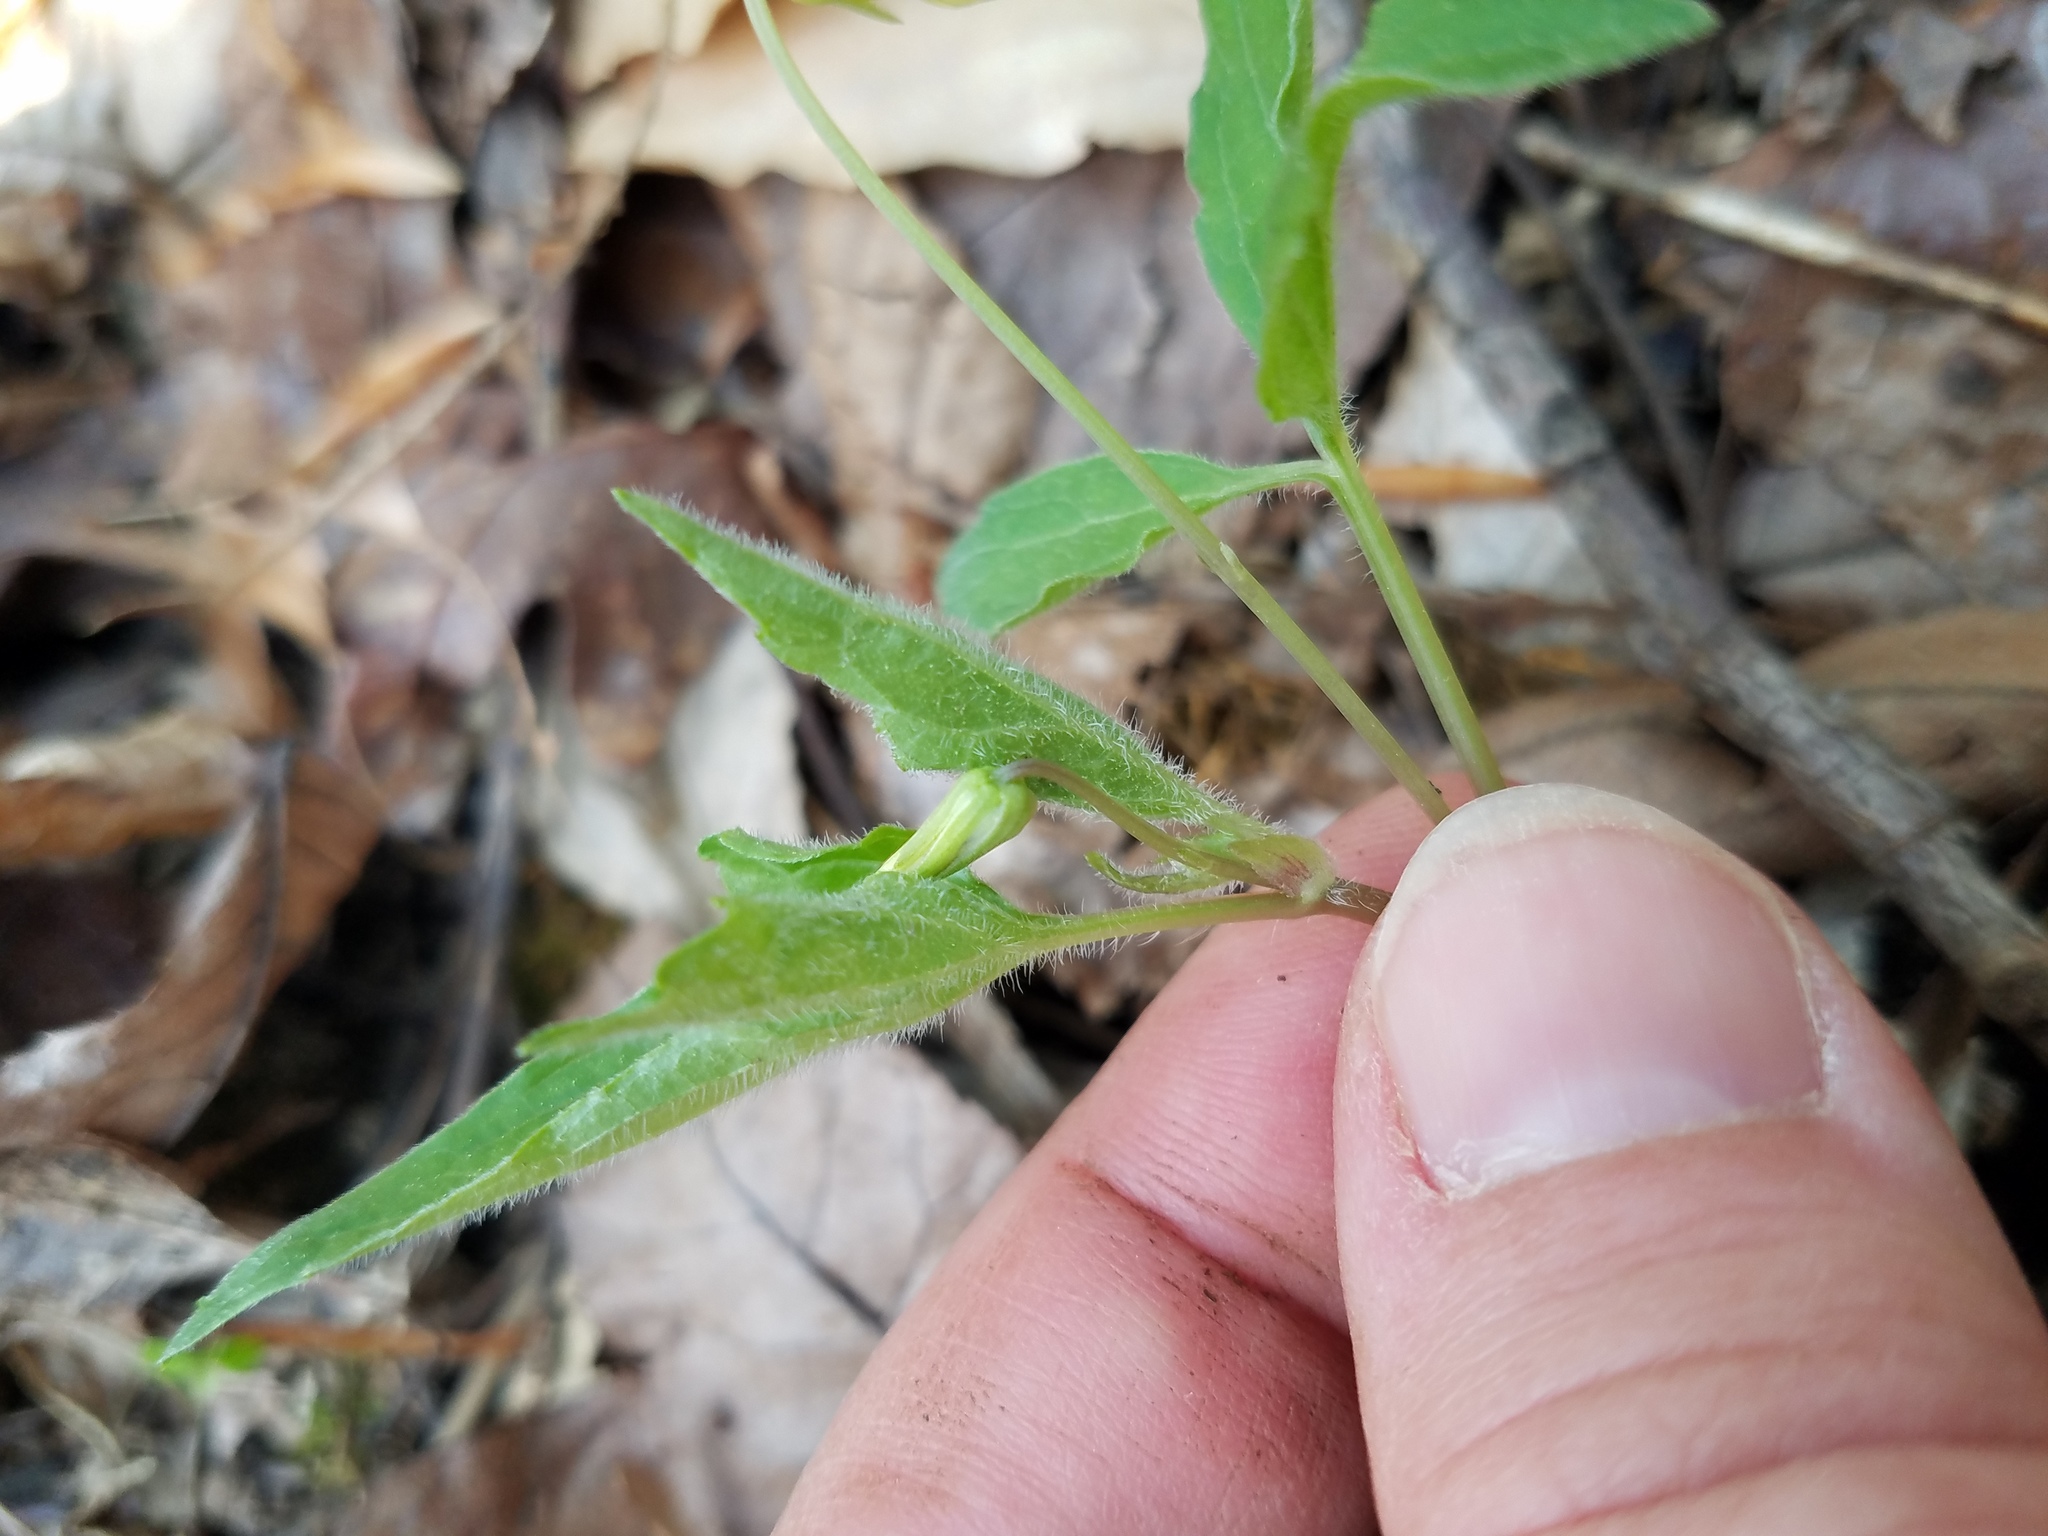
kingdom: Plantae
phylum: Tracheophyta
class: Magnoliopsida
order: Malpighiales
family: Violaceae
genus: Viola
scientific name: Viola tripartita
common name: Three-part violet
